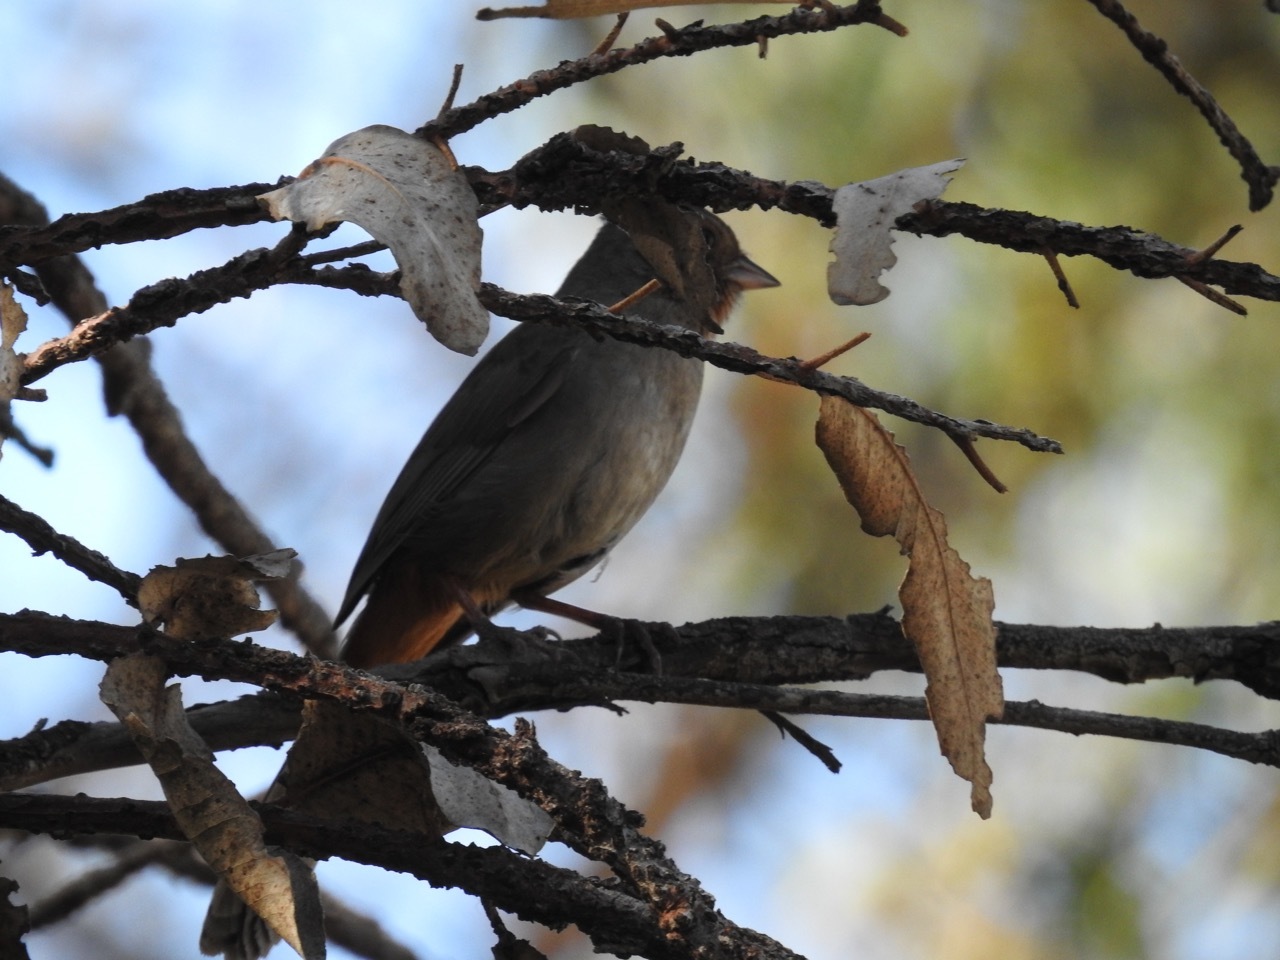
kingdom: Animalia
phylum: Chordata
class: Aves
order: Passeriformes
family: Passerellidae
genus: Melozone
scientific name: Melozone crissalis
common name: California towhee
